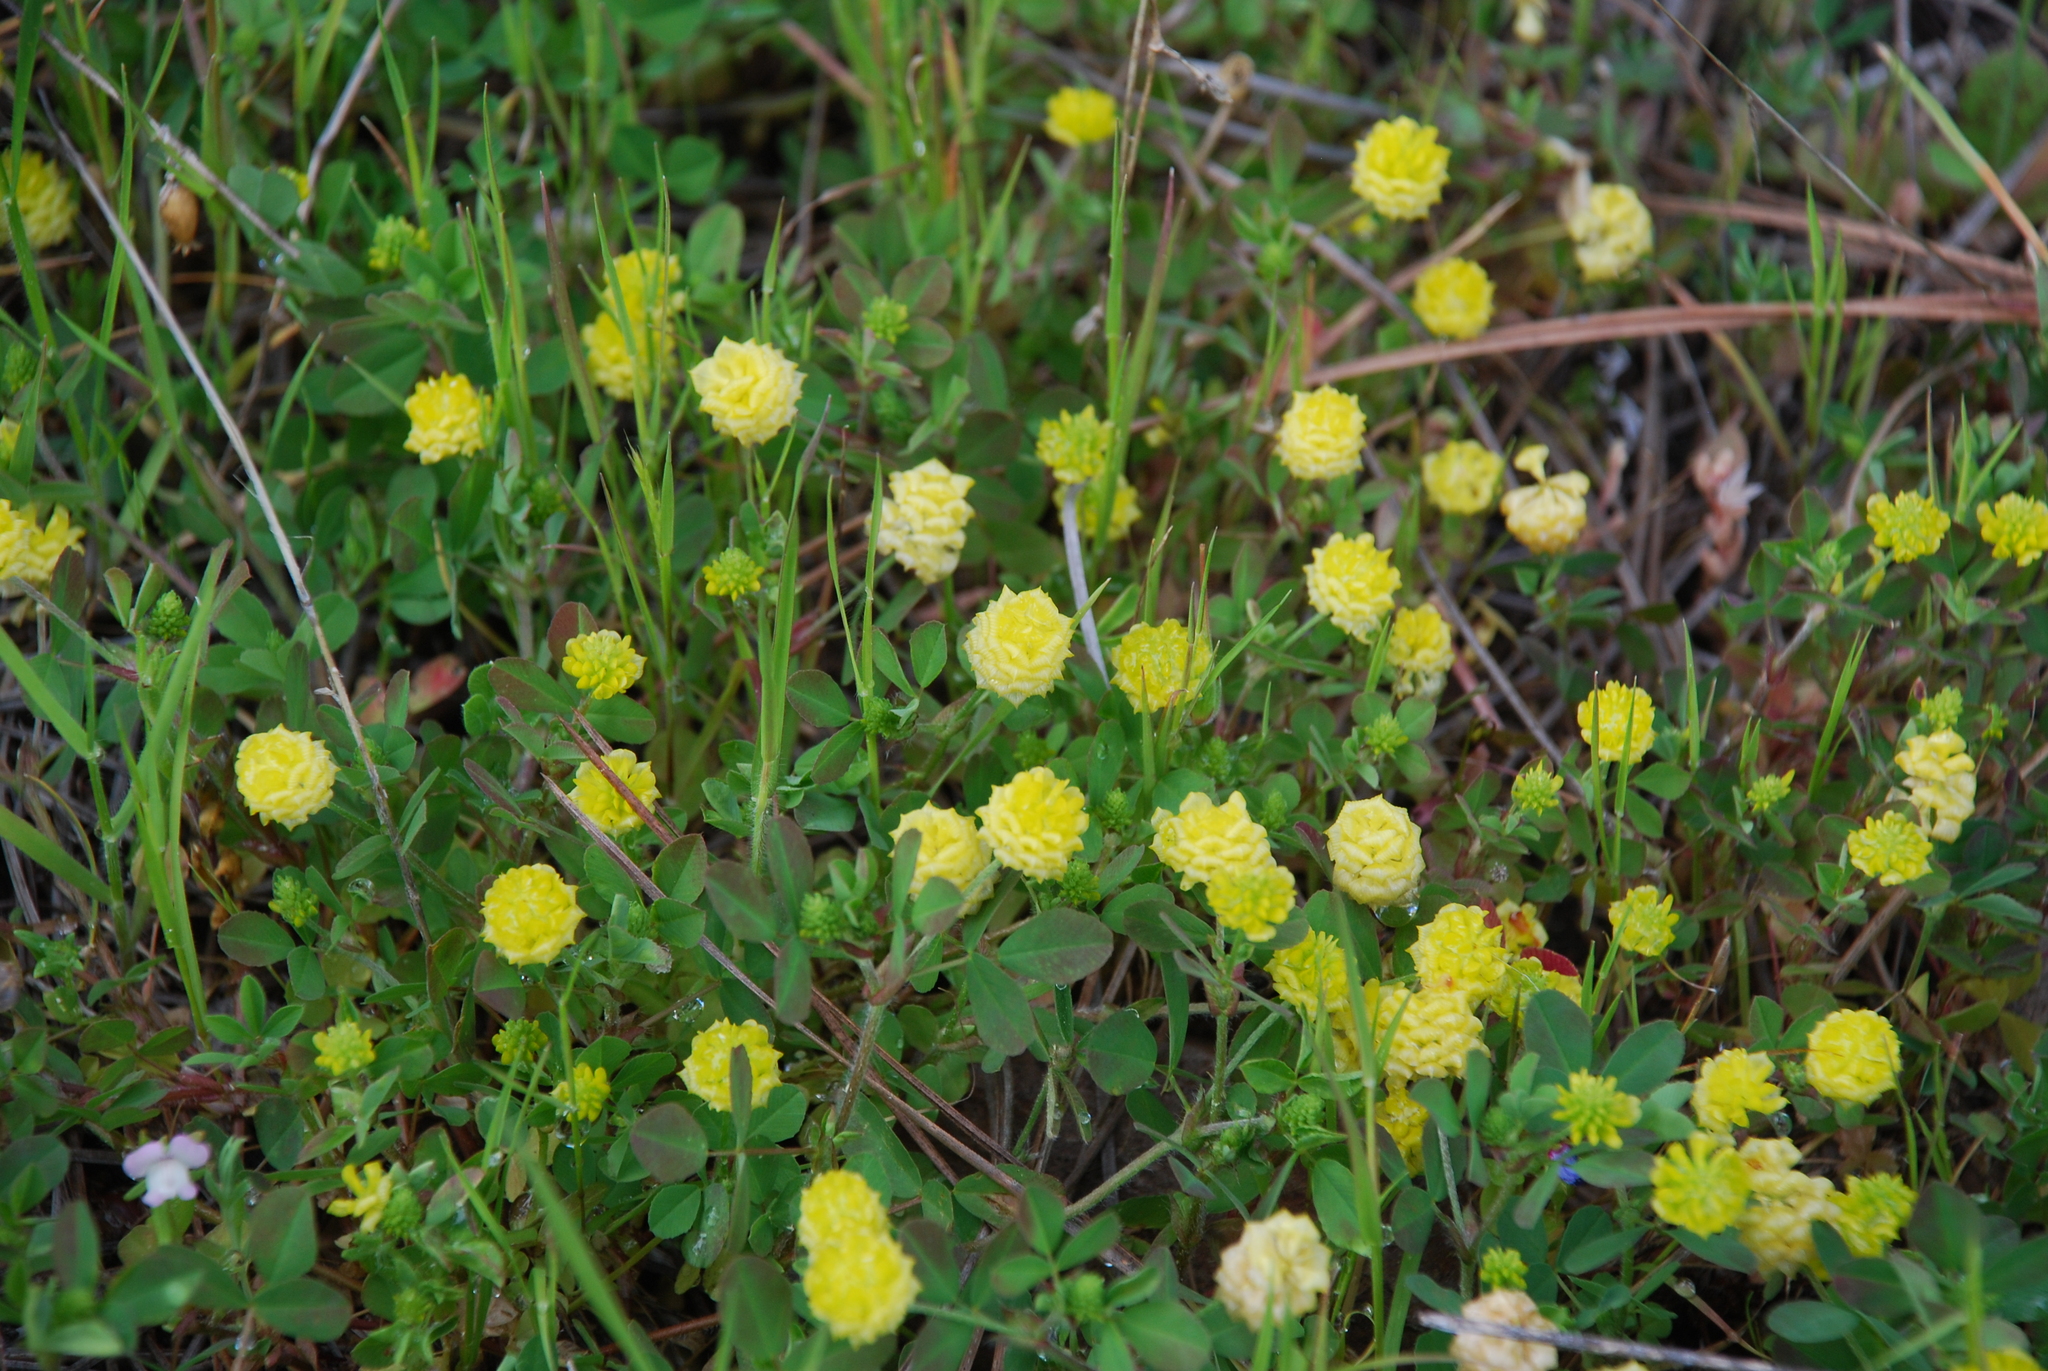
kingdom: Plantae
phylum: Tracheophyta
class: Magnoliopsida
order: Fabales
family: Fabaceae
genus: Trifolium
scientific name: Trifolium campestre
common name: Field clover
